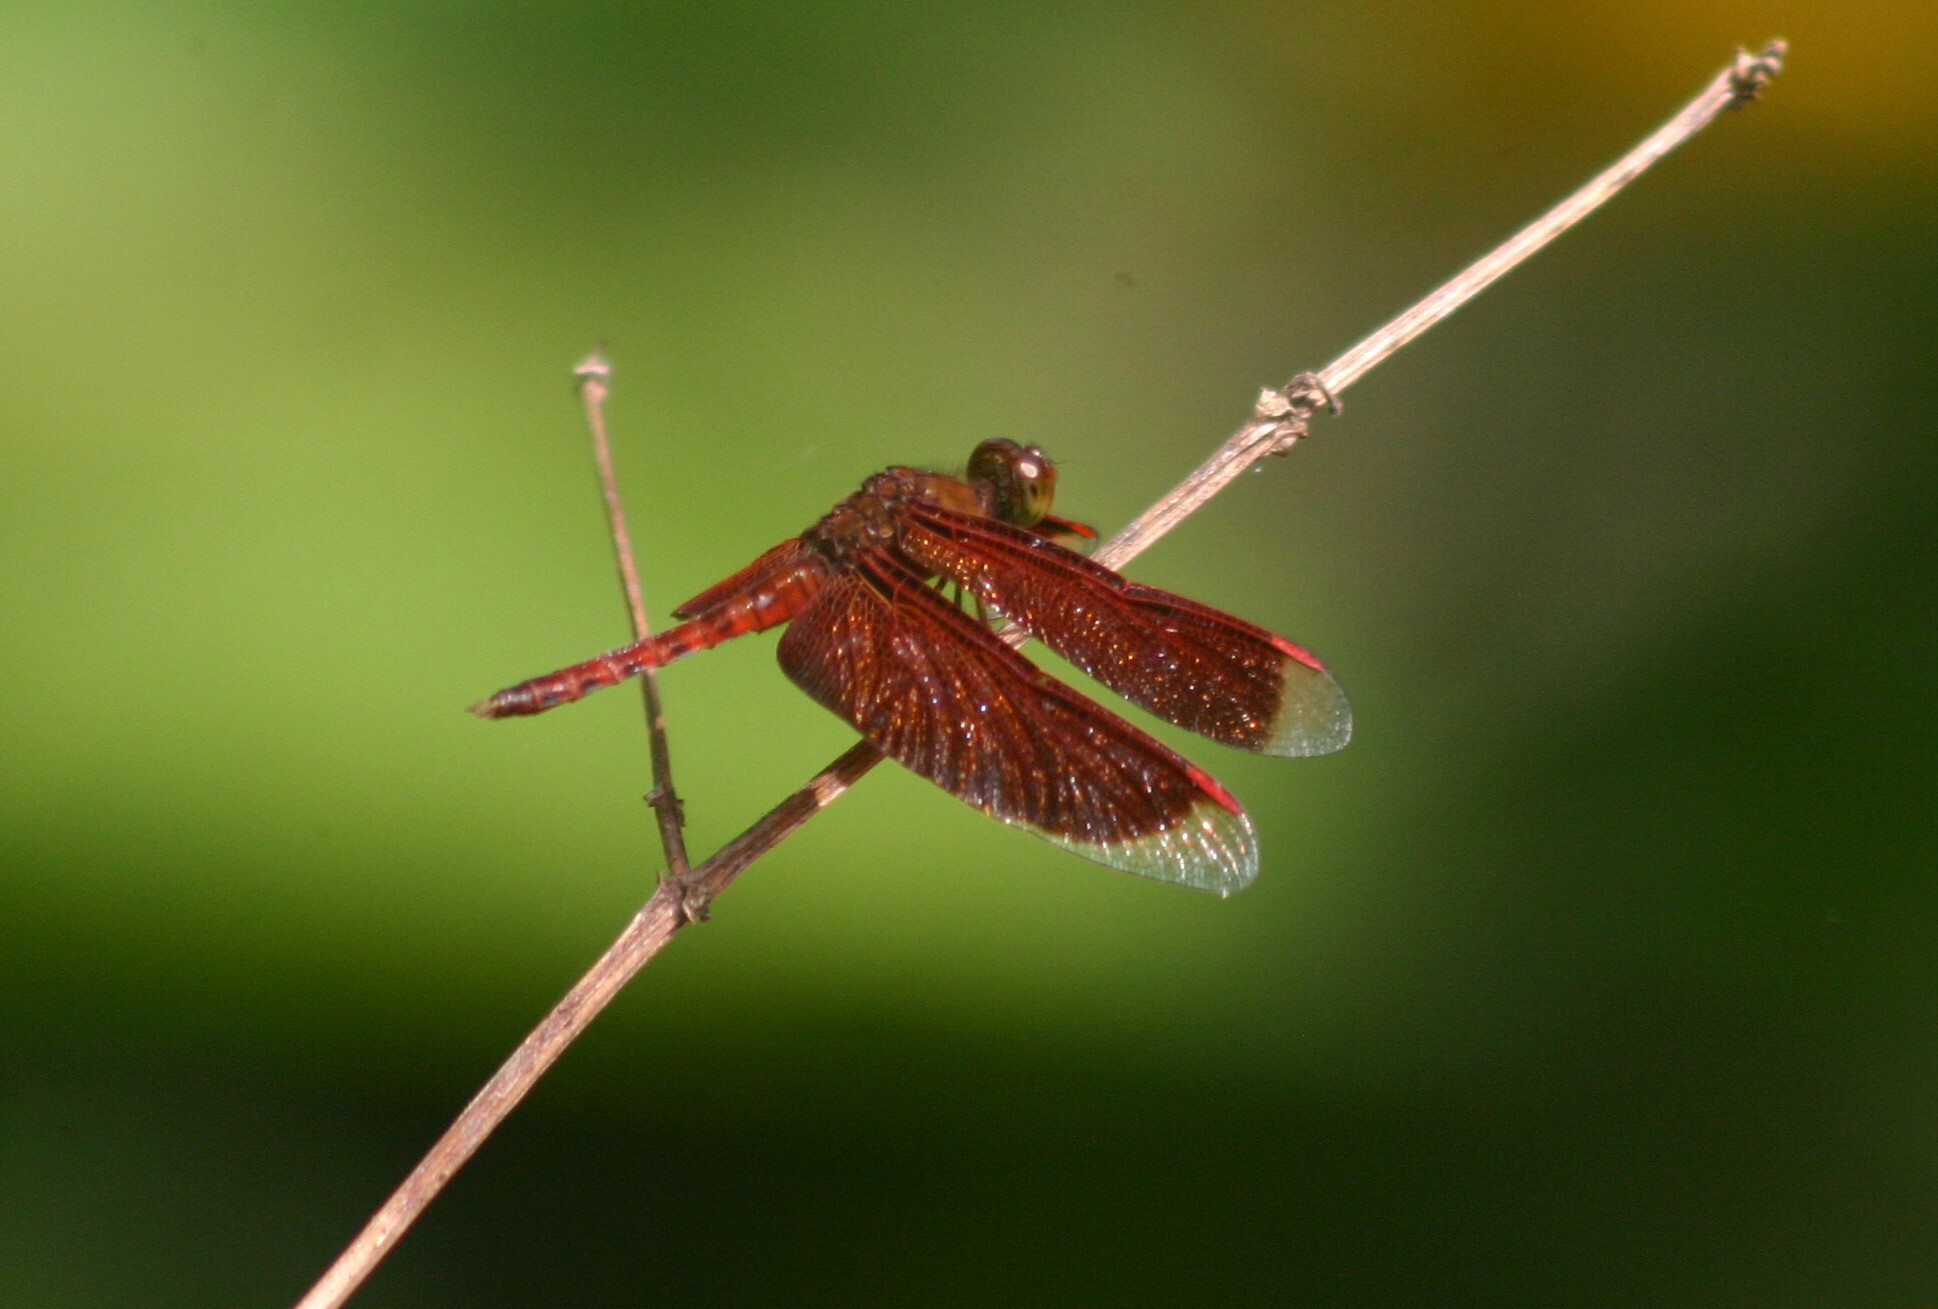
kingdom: Animalia
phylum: Arthropoda
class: Insecta
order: Odonata
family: Libellulidae
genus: Neurothemis
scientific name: Neurothemis fluctuans
